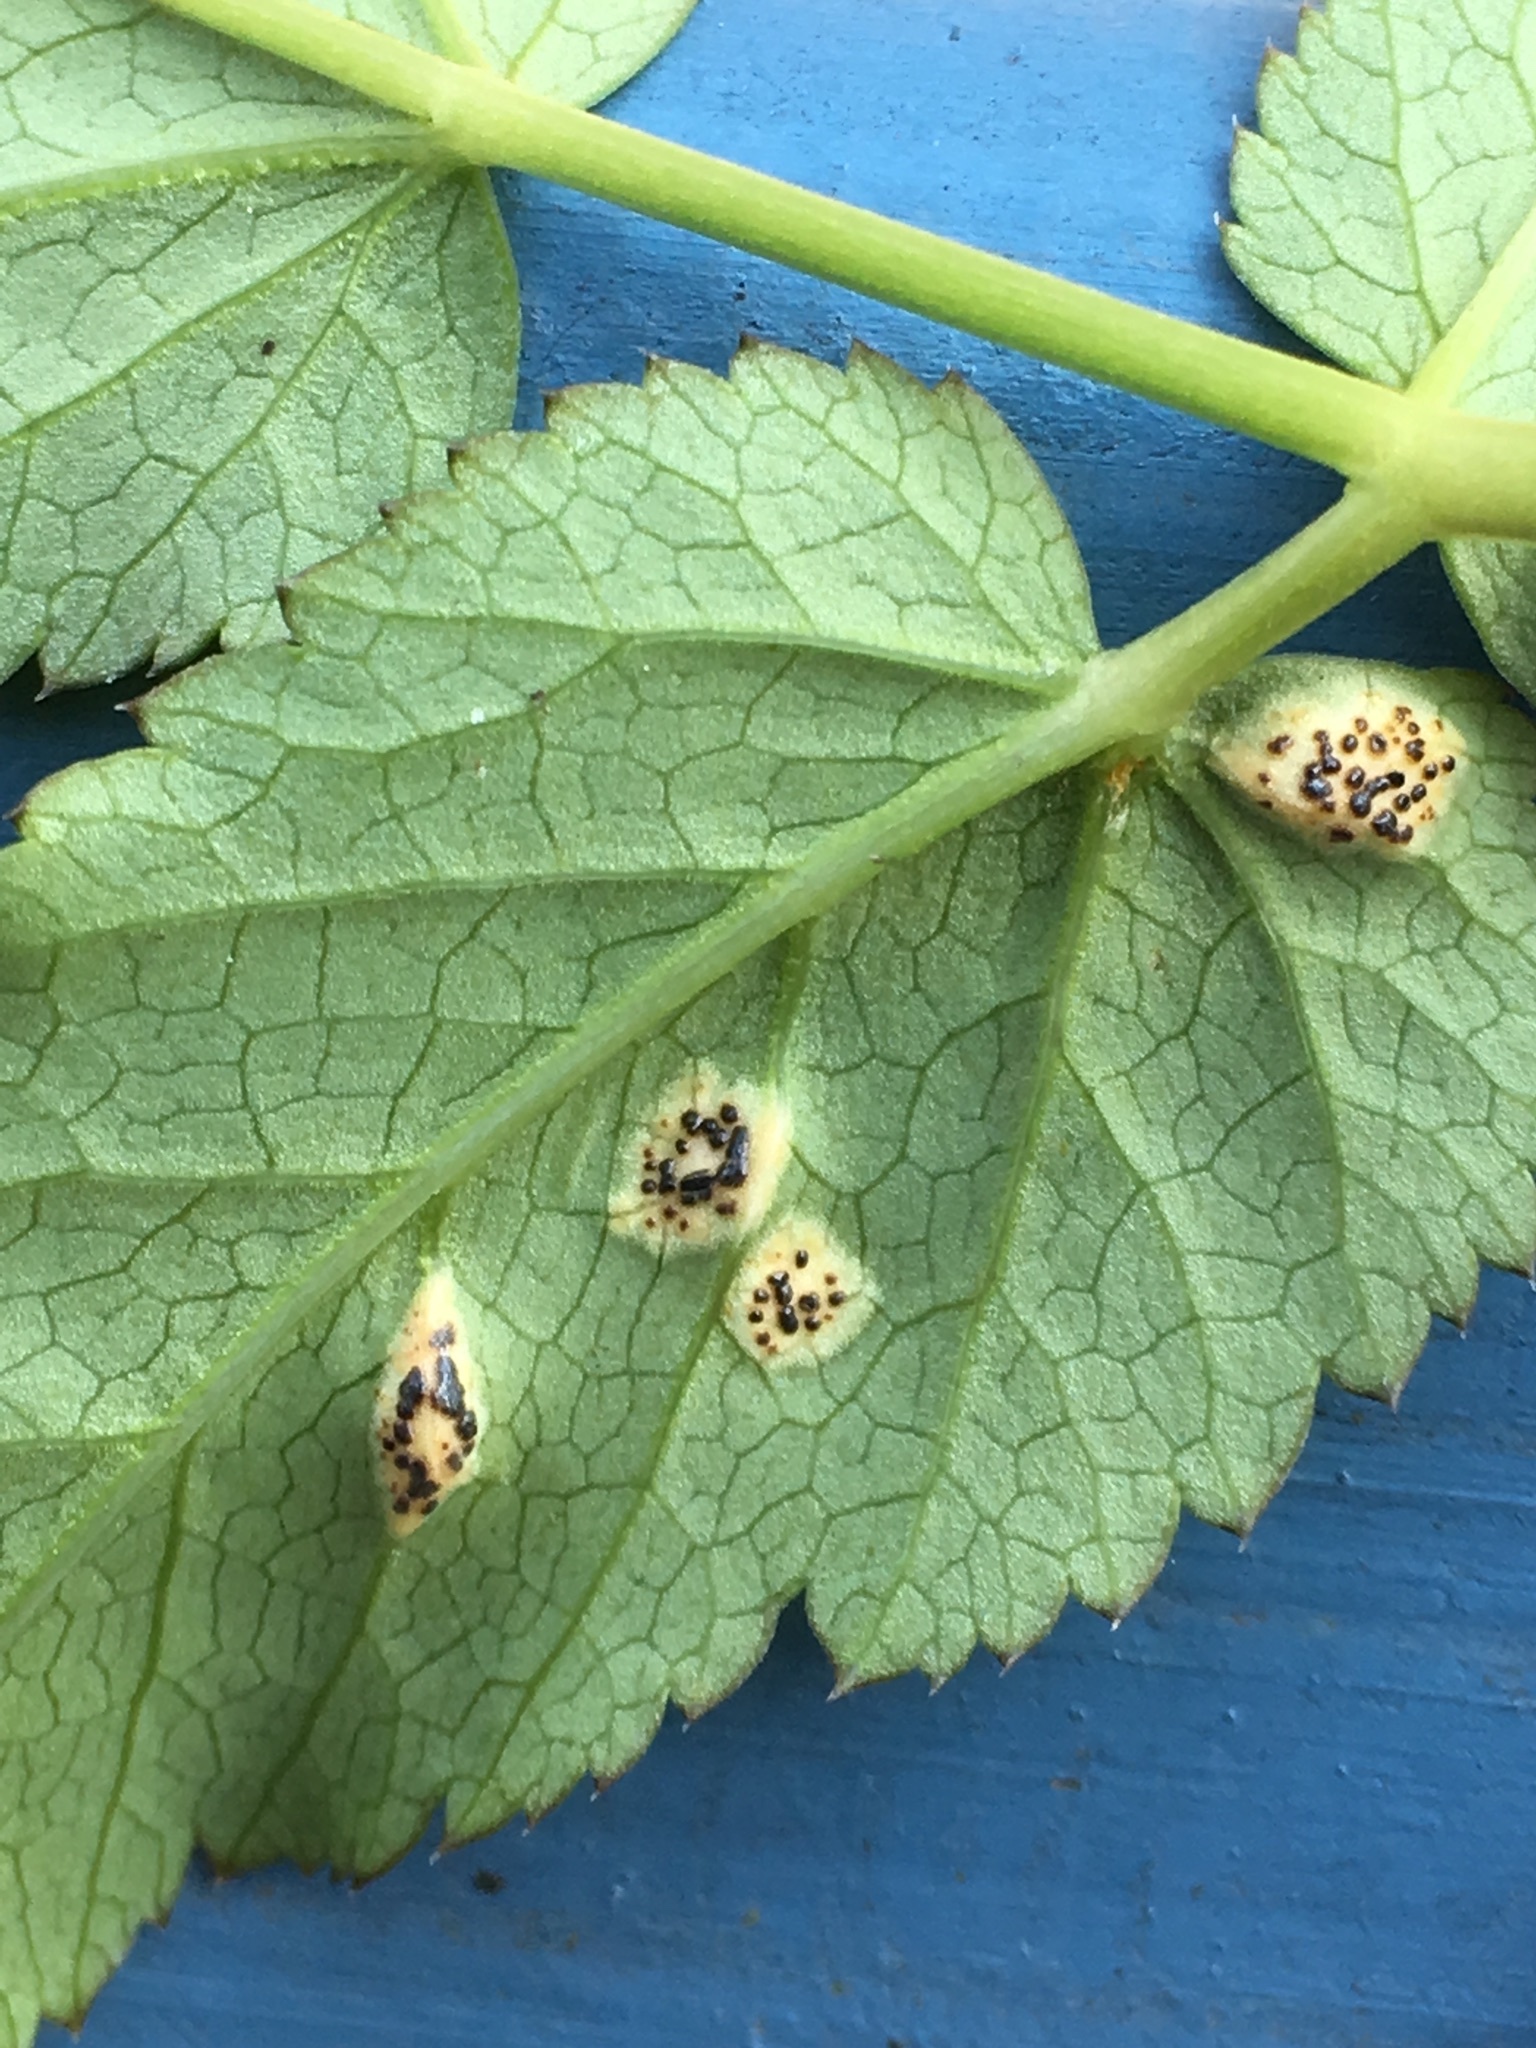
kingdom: Fungi
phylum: Basidiomycota
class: Pucciniomycetes
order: Pucciniales
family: Pucciniaceae
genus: Puccinia
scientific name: Puccinia aegopodii
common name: Ground elder rust
